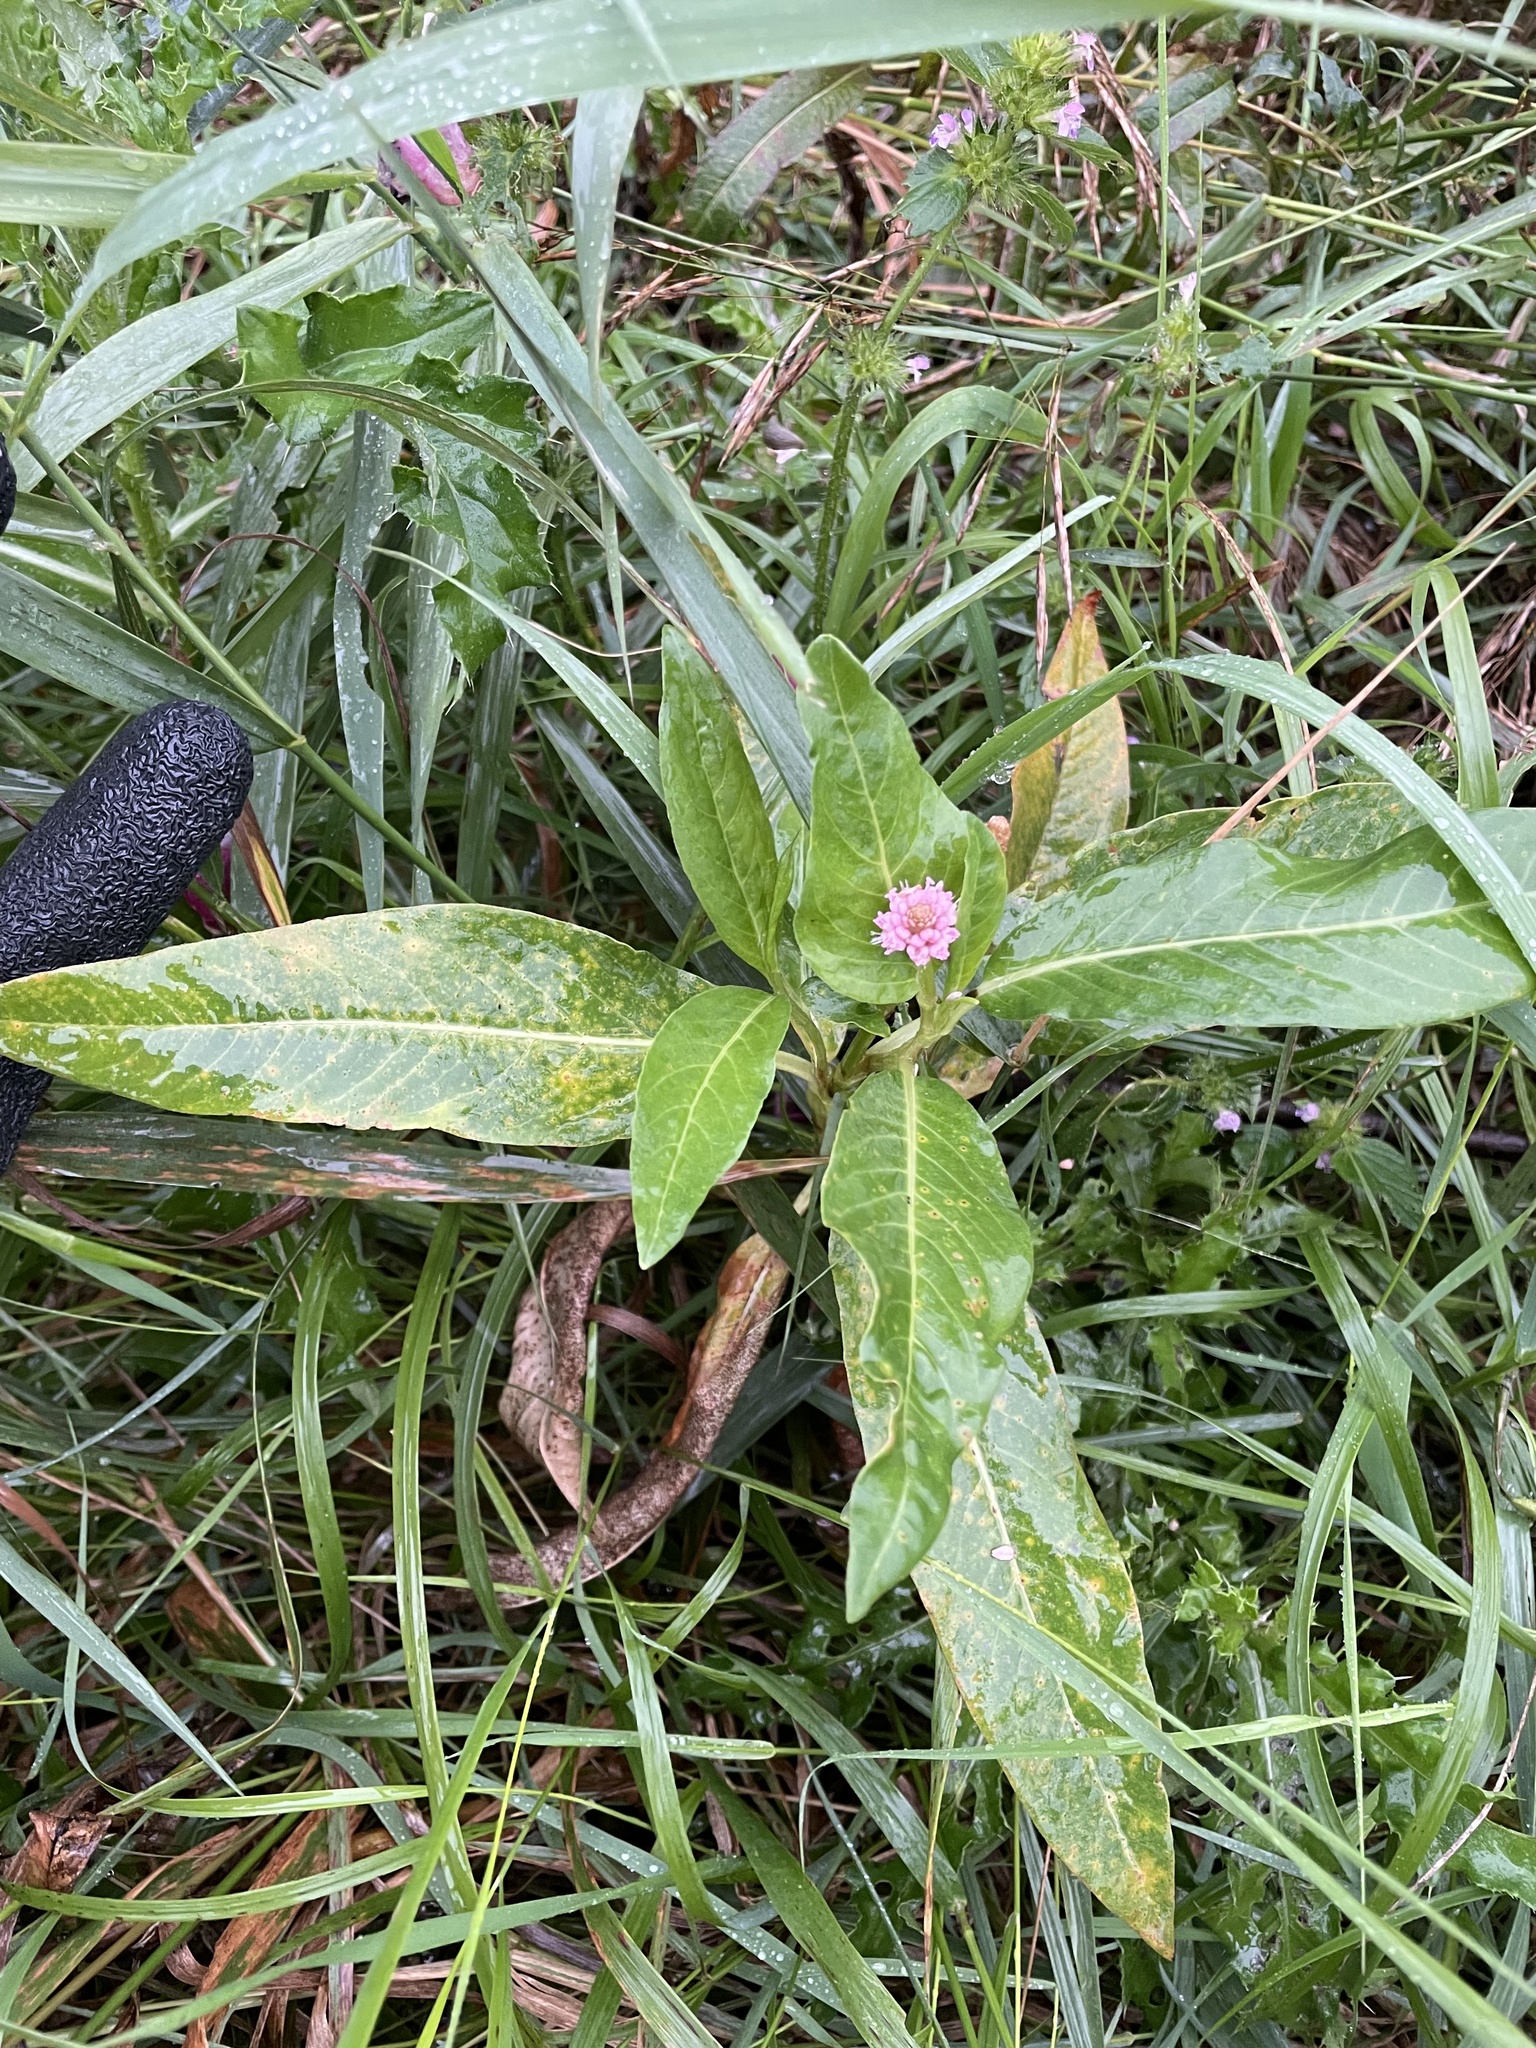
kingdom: Plantae
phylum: Tracheophyta
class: Magnoliopsida
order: Caryophyllales
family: Polygonaceae
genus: Persicaria
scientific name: Persicaria amphibia
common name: Amphibious bistort
